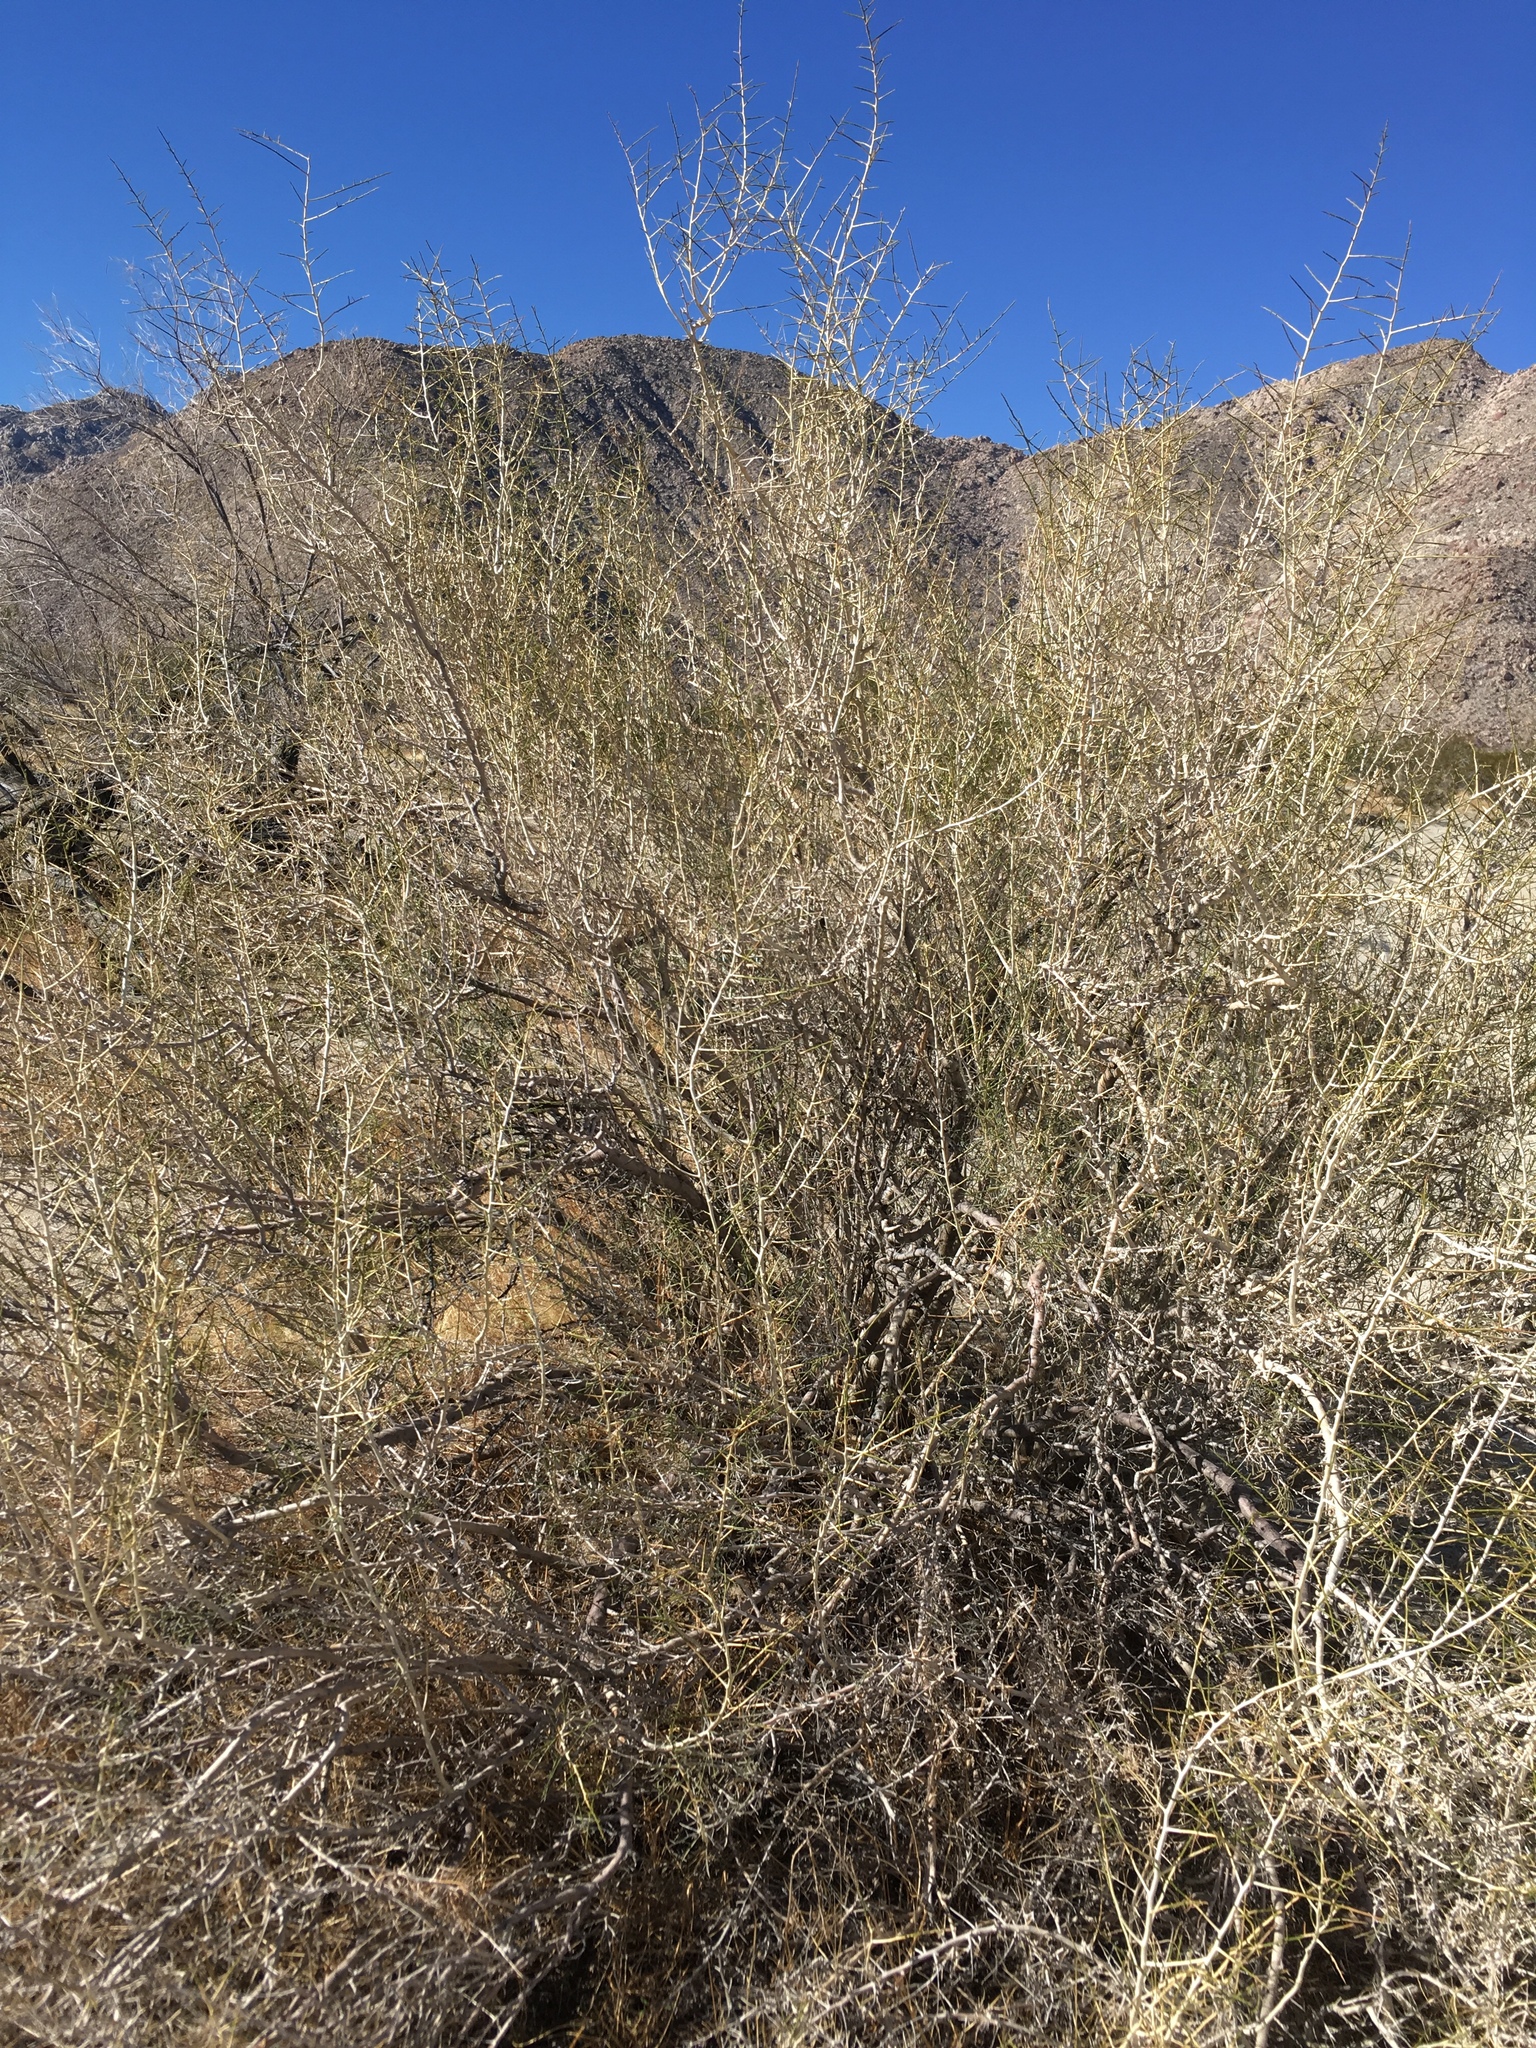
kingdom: Plantae
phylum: Tracheophyta
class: Magnoliopsida
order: Fabales
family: Fabaceae
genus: Psorothamnus
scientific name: Psorothamnus schottii
